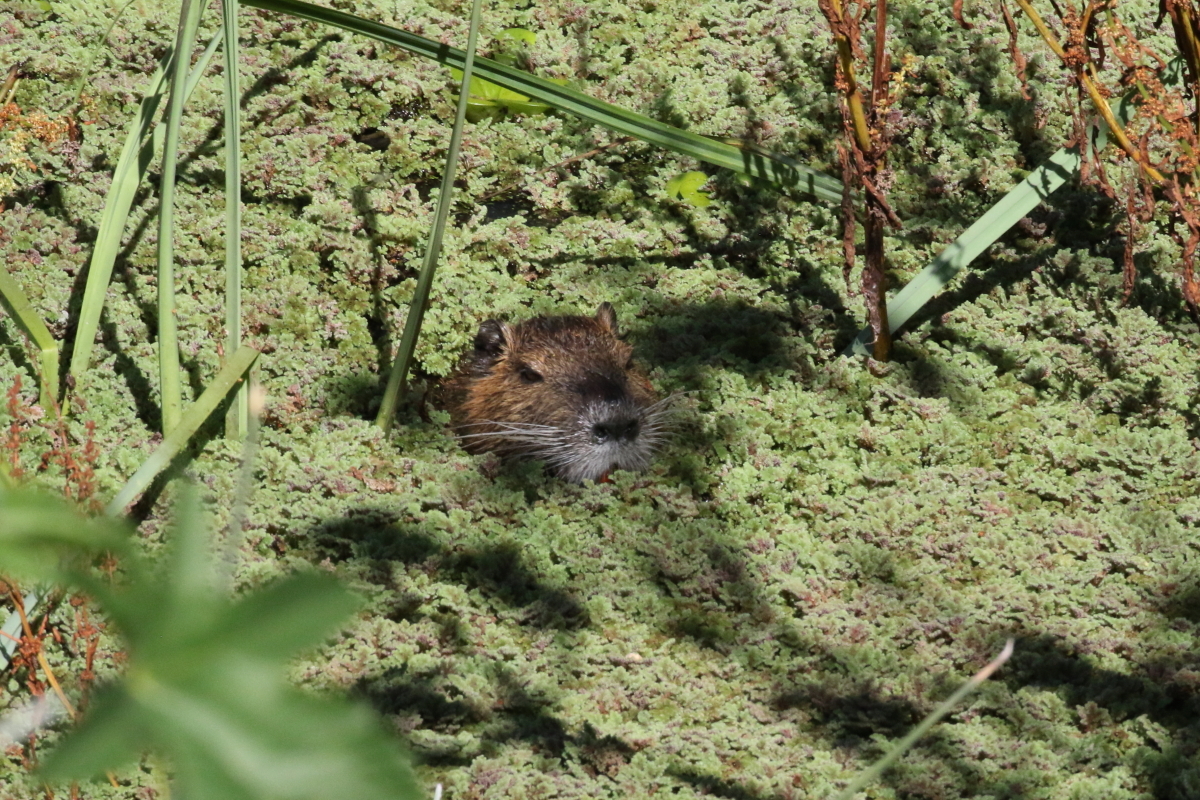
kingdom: Animalia
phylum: Chordata
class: Mammalia
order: Rodentia
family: Myocastoridae
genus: Myocastor
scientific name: Myocastor coypus
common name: Coypu
